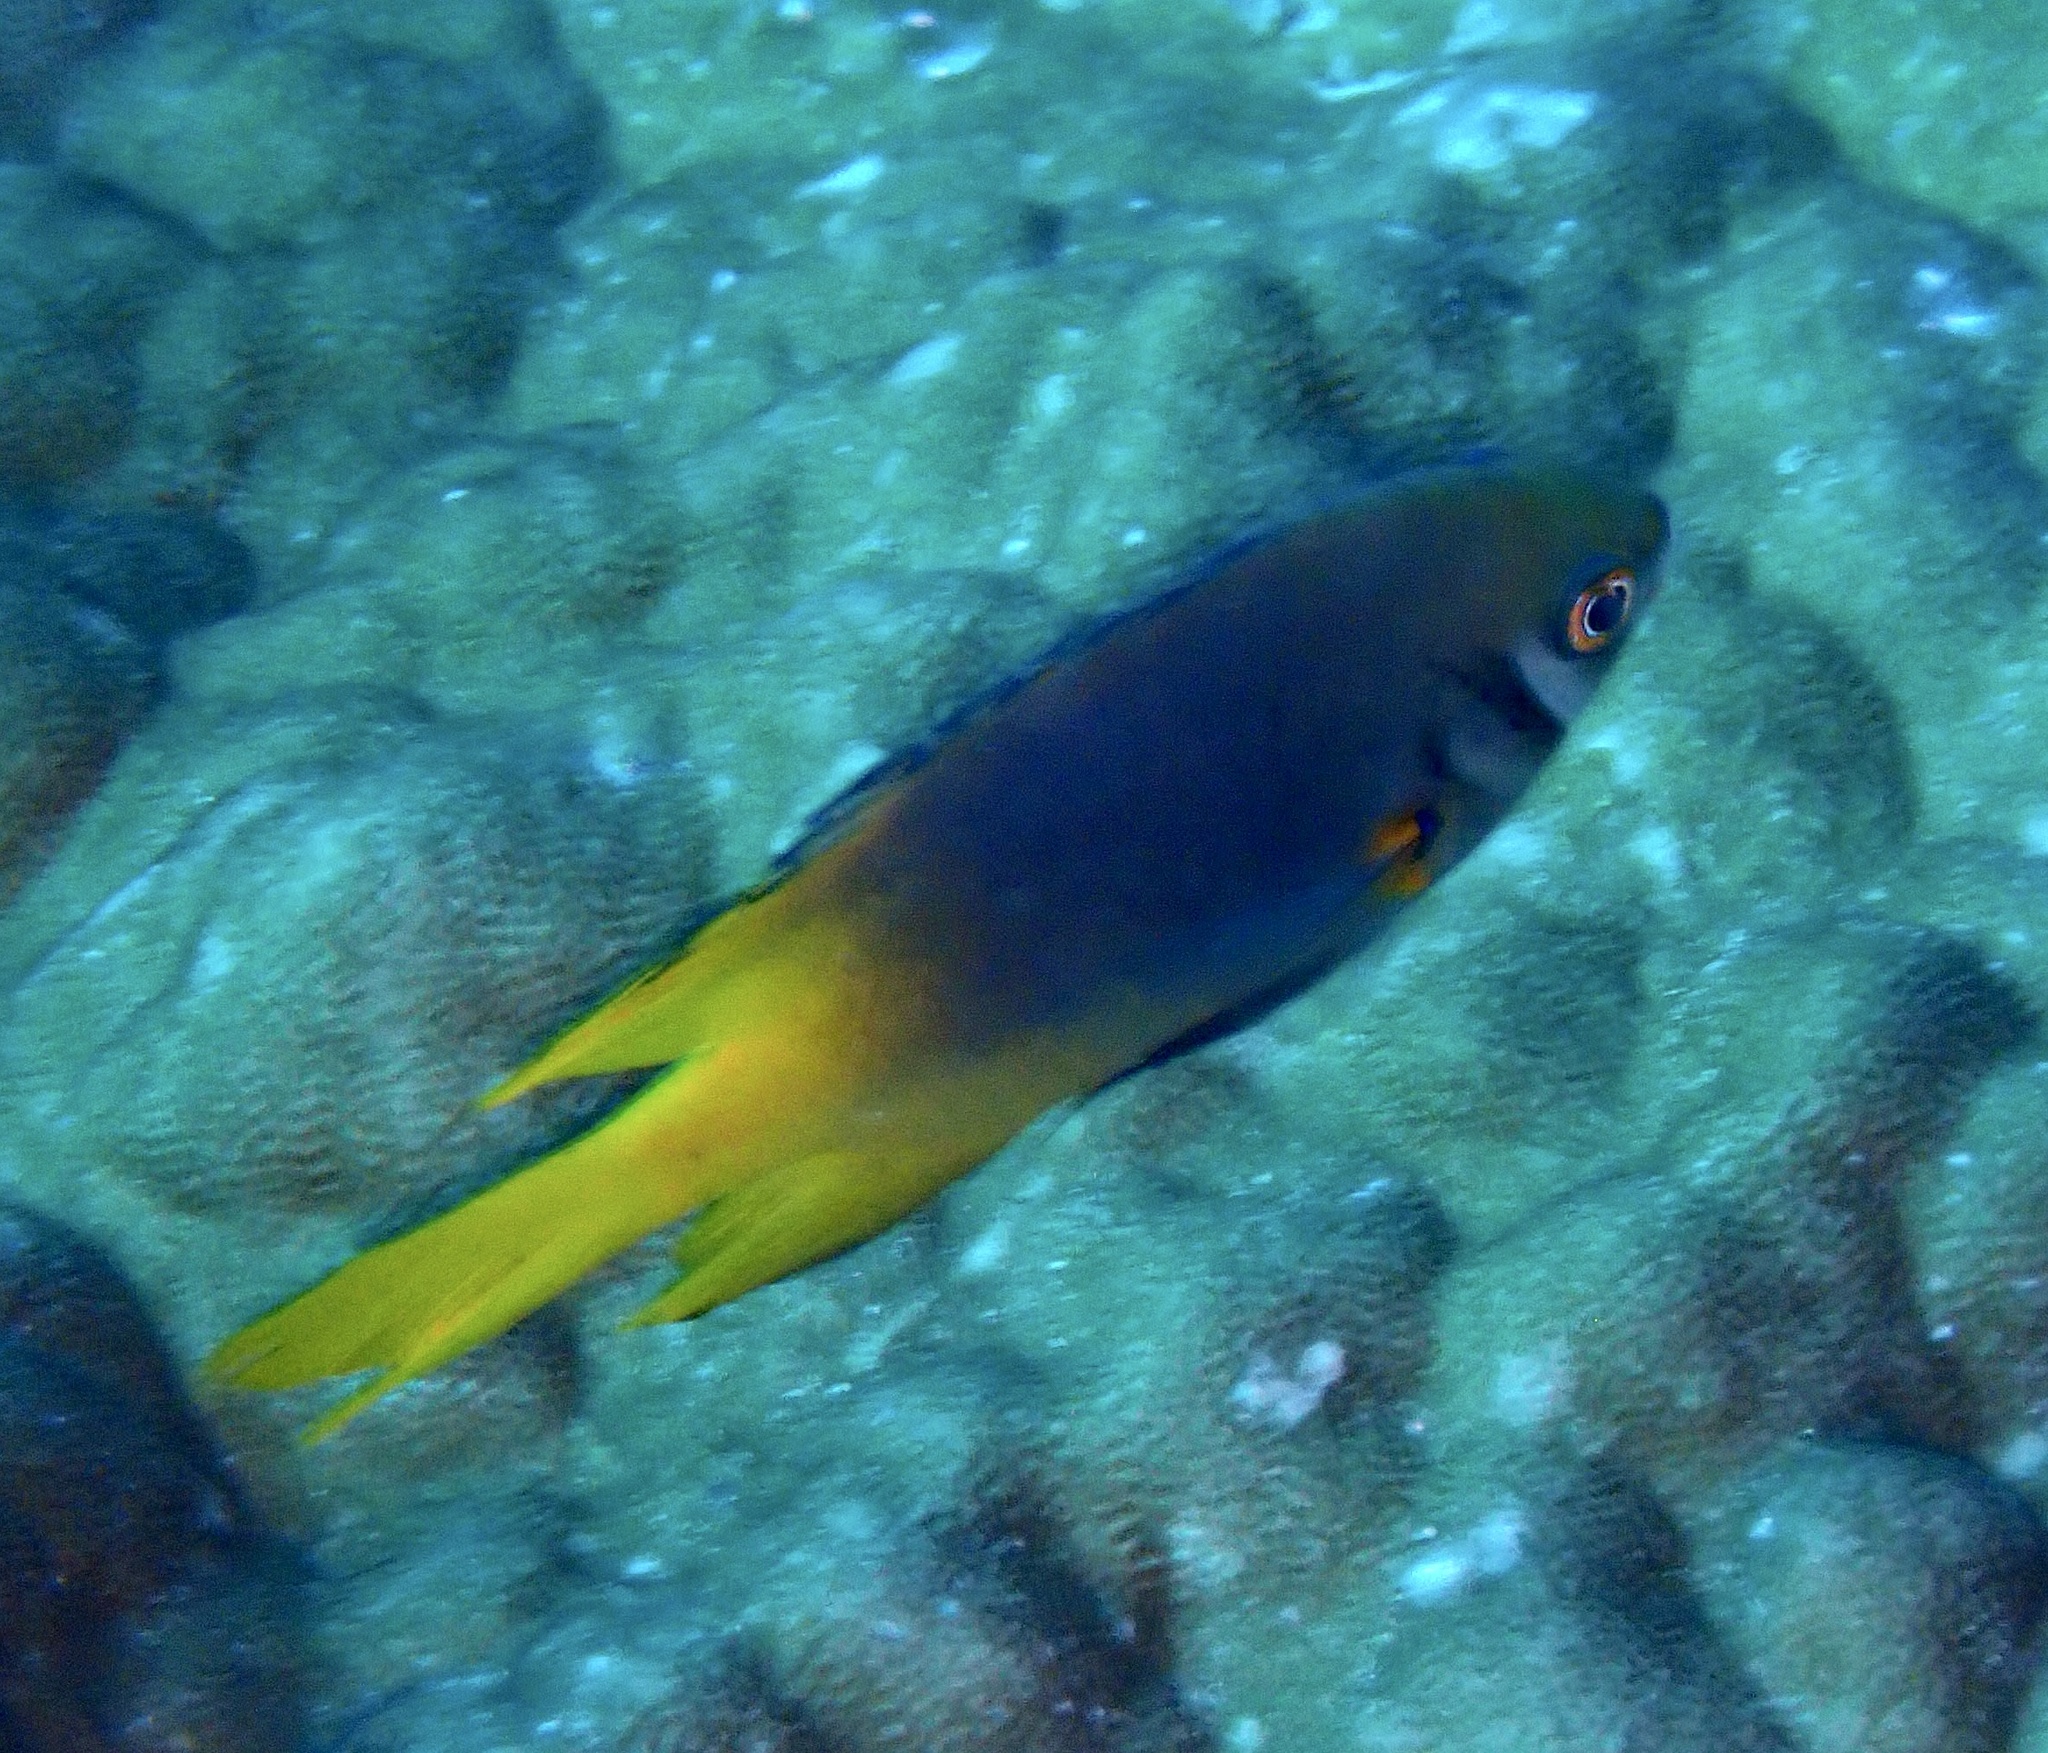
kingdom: Animalia
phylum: Chordata
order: Perciformes
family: Pomacentridae
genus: Neoglyphidodon
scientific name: Neoglyphidodon nigroris
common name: Behn's damsel
